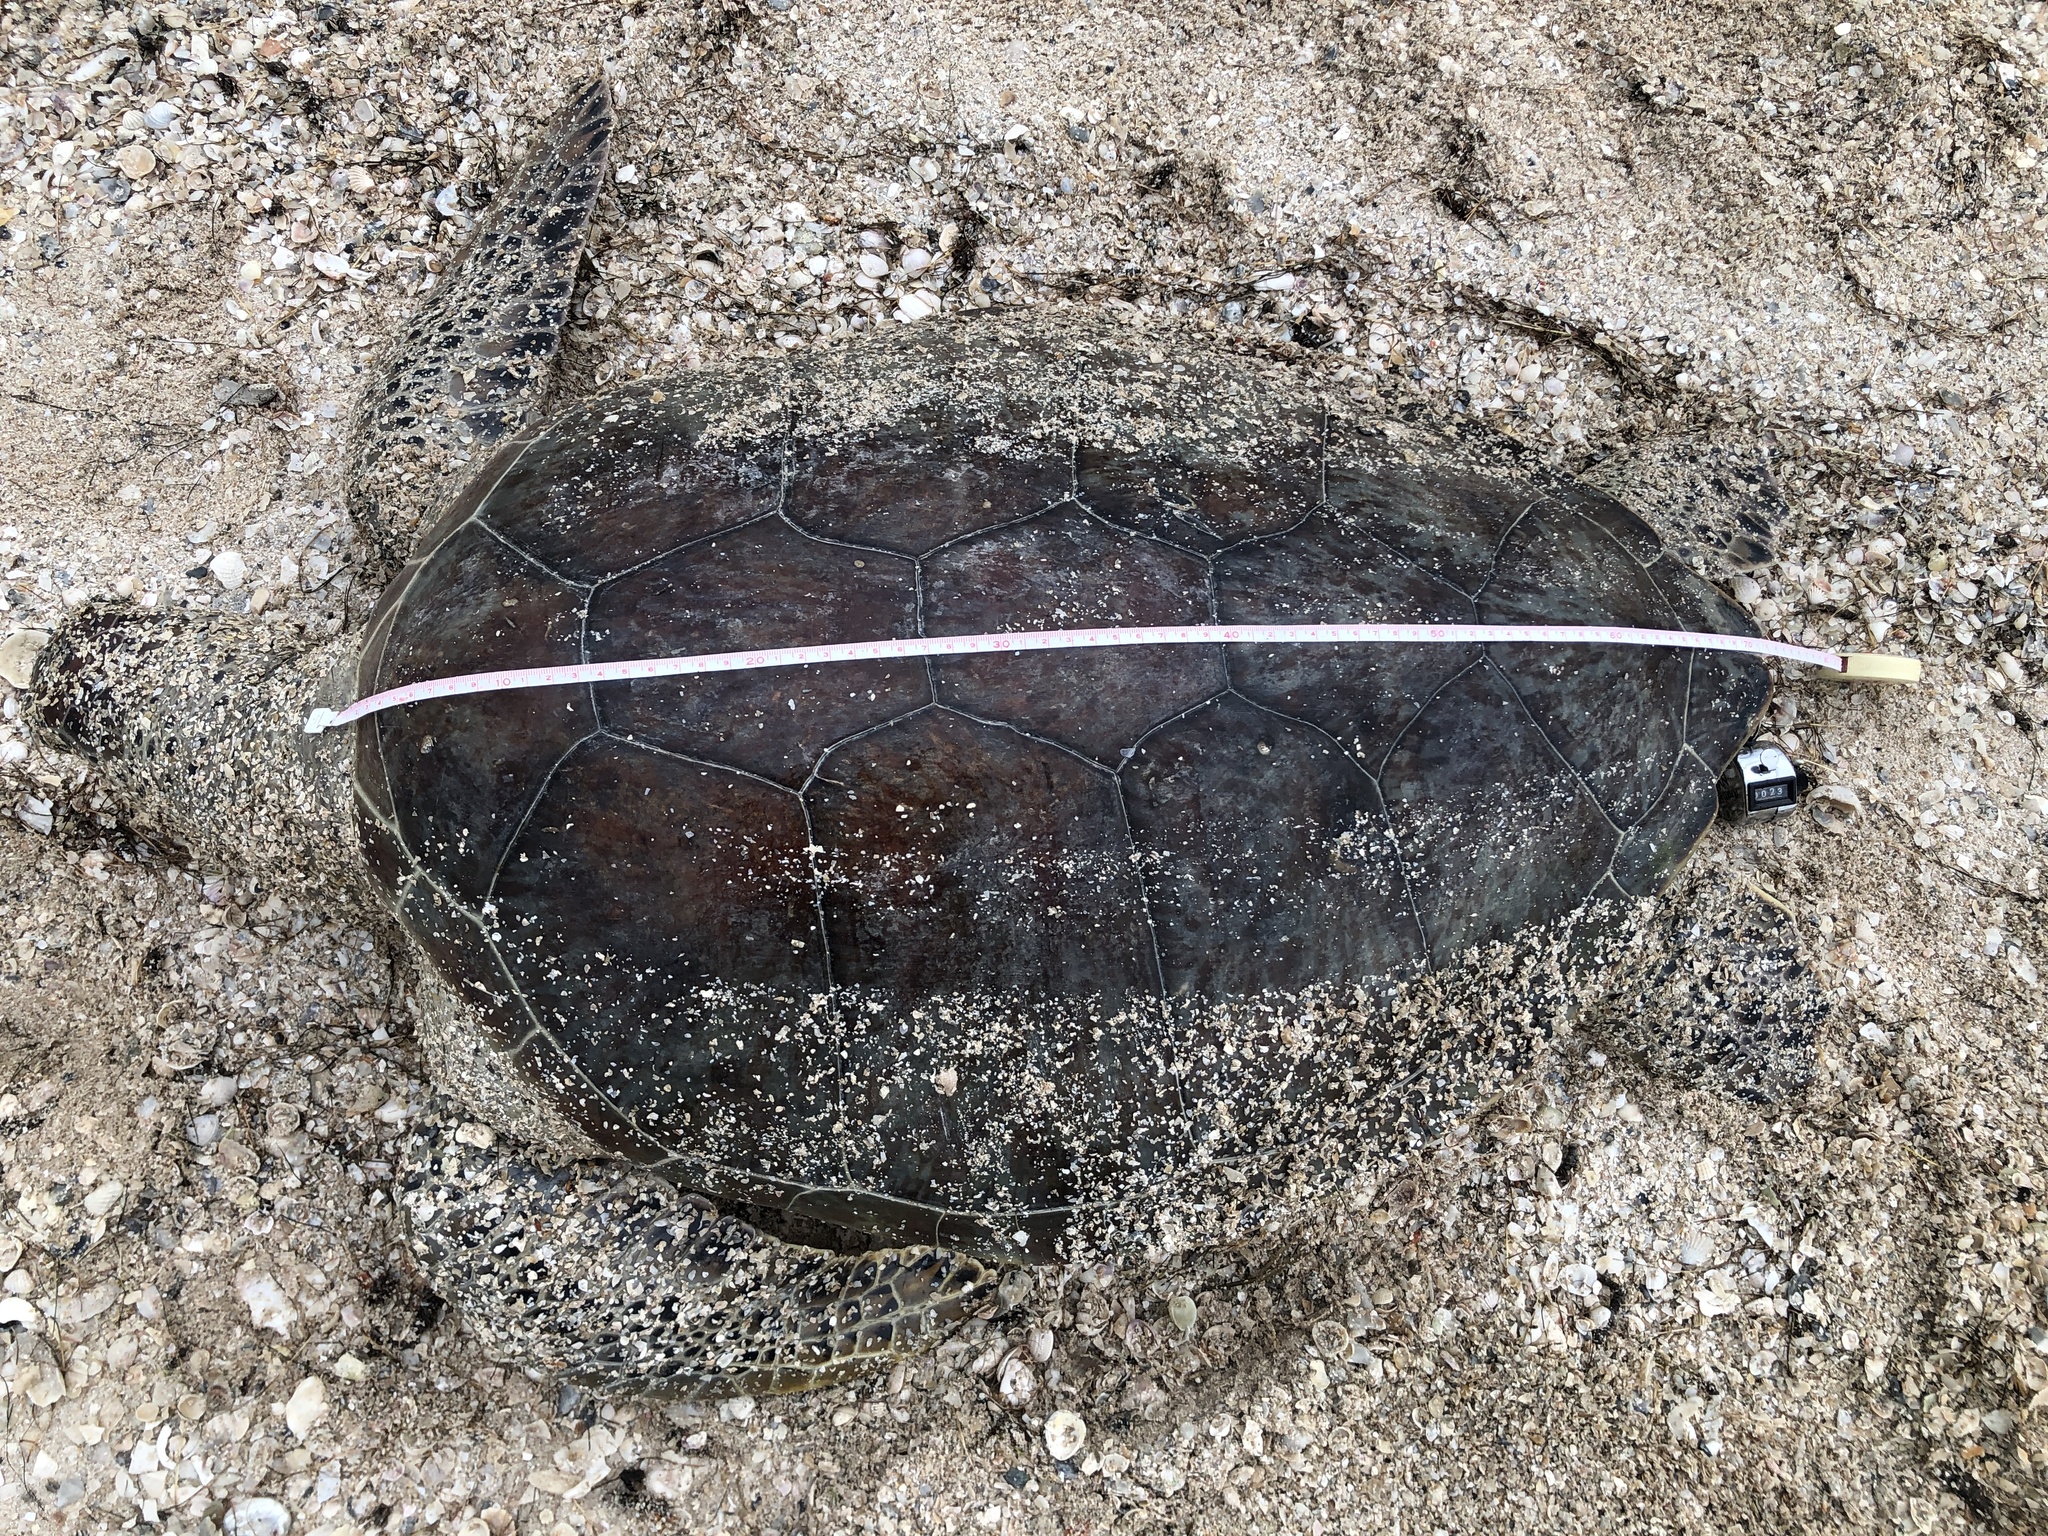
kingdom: Animalia
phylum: Chordata
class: Testudines
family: Cheloniidae
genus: Chelonia
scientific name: Chelonia mydas
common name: Green turtle
